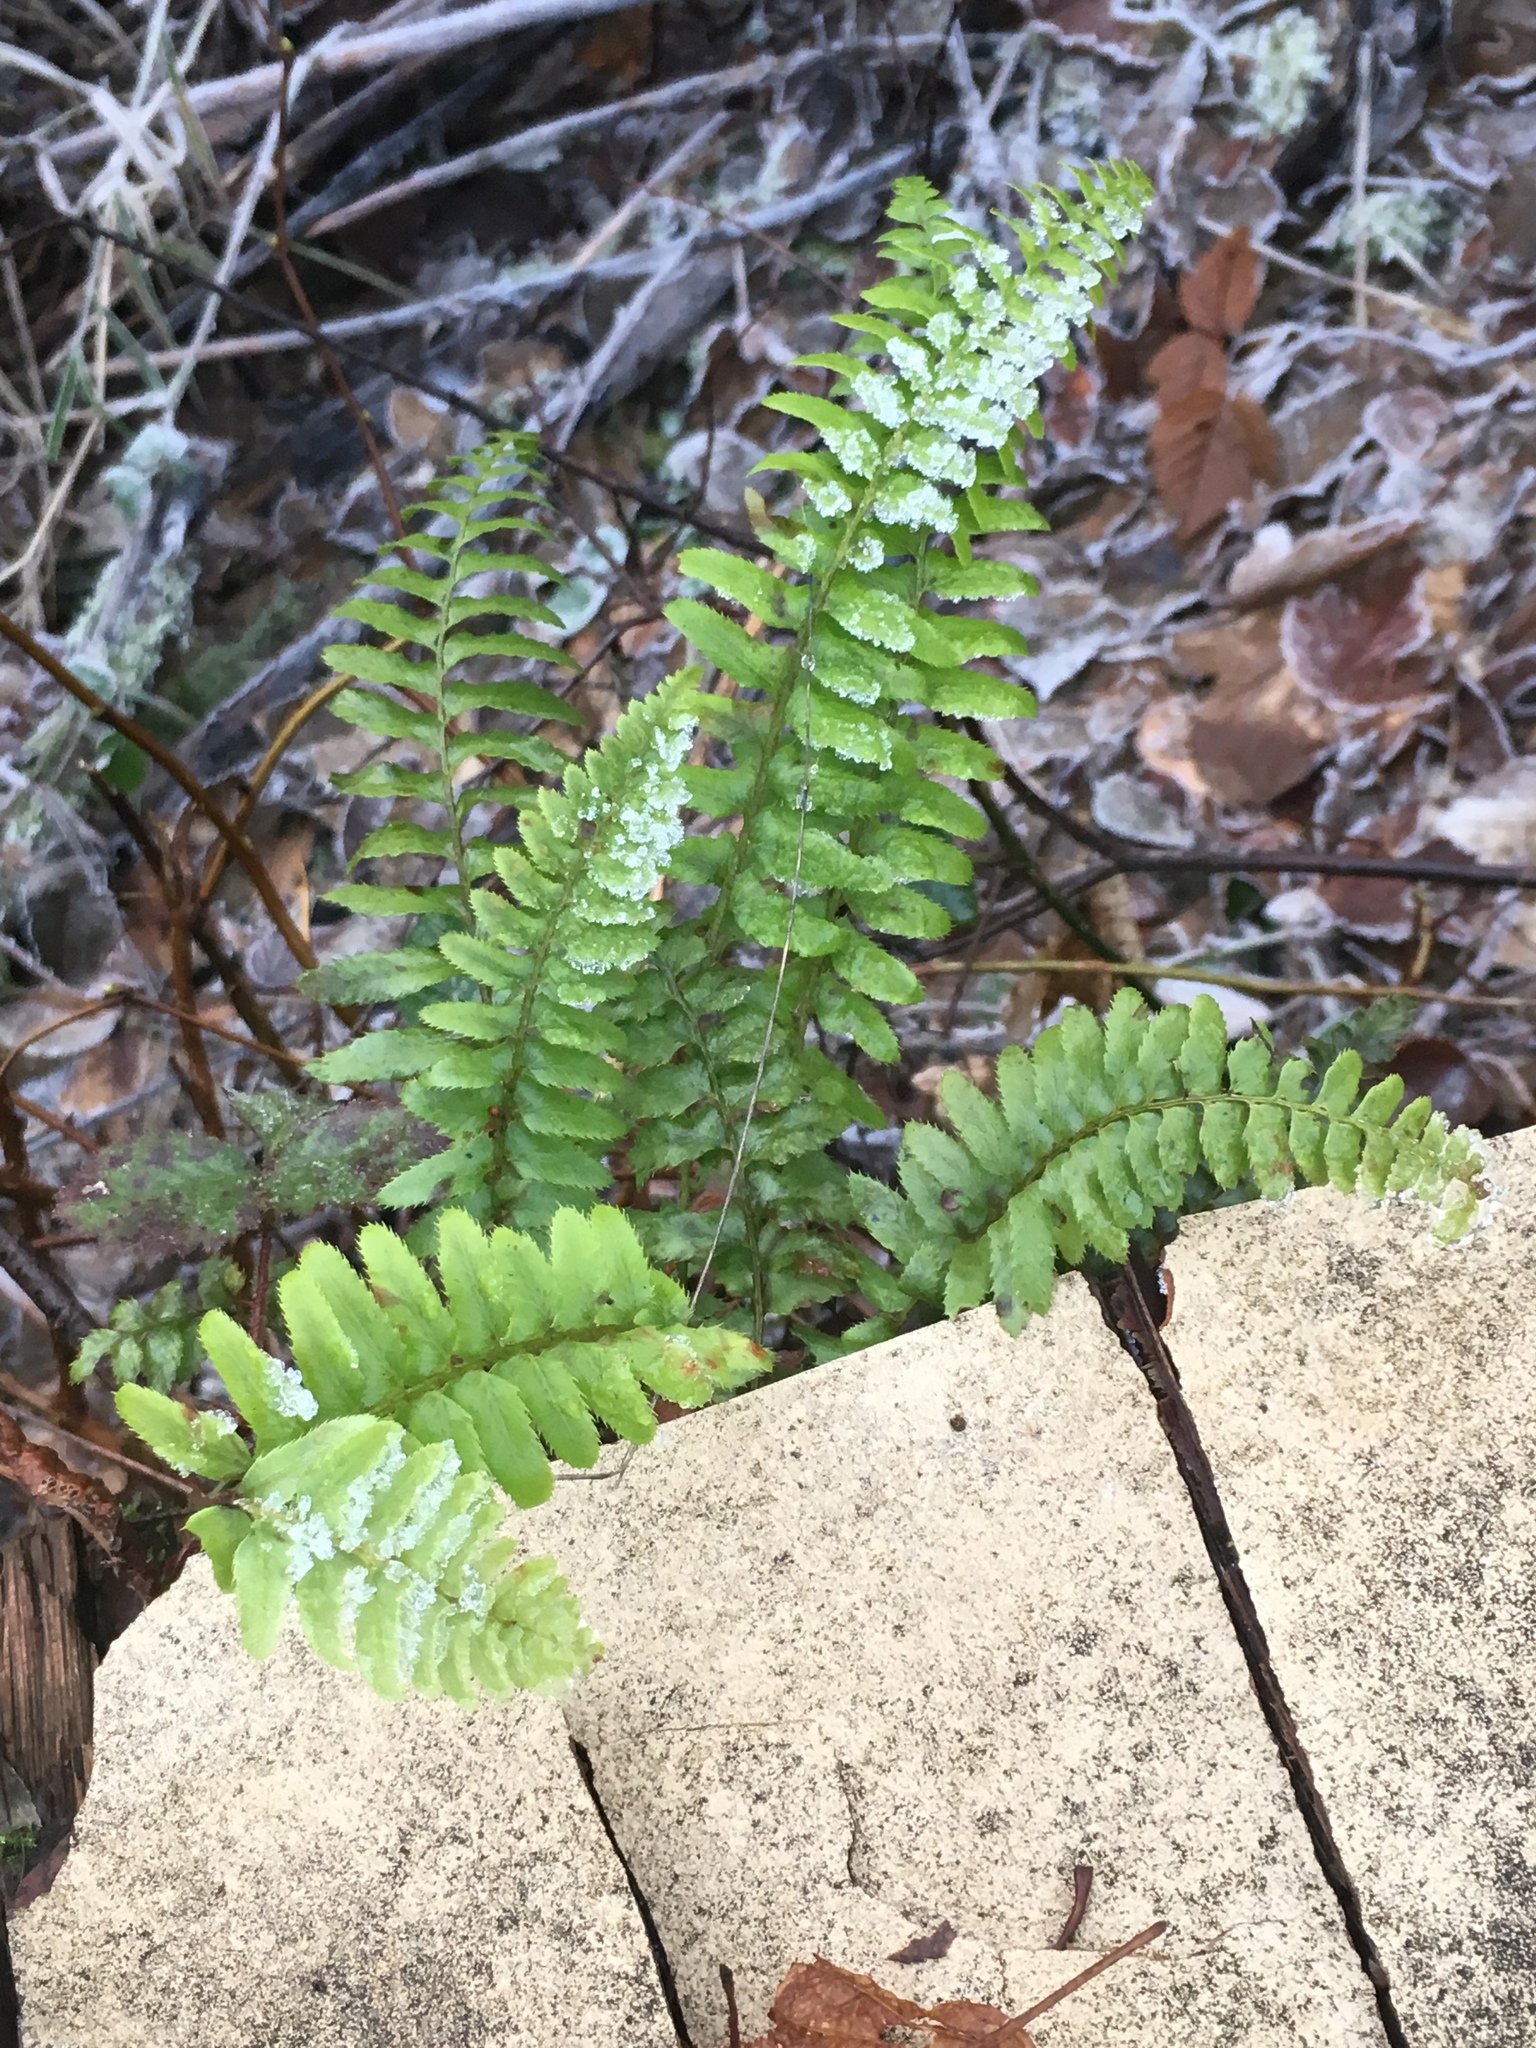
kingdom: Plantae
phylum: Tracheophyta
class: Polypodiopsida
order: Polypodiales
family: Polypodiaceae
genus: Polypodium
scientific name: Polypodium glycyrrhiza
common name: Licorice fern
